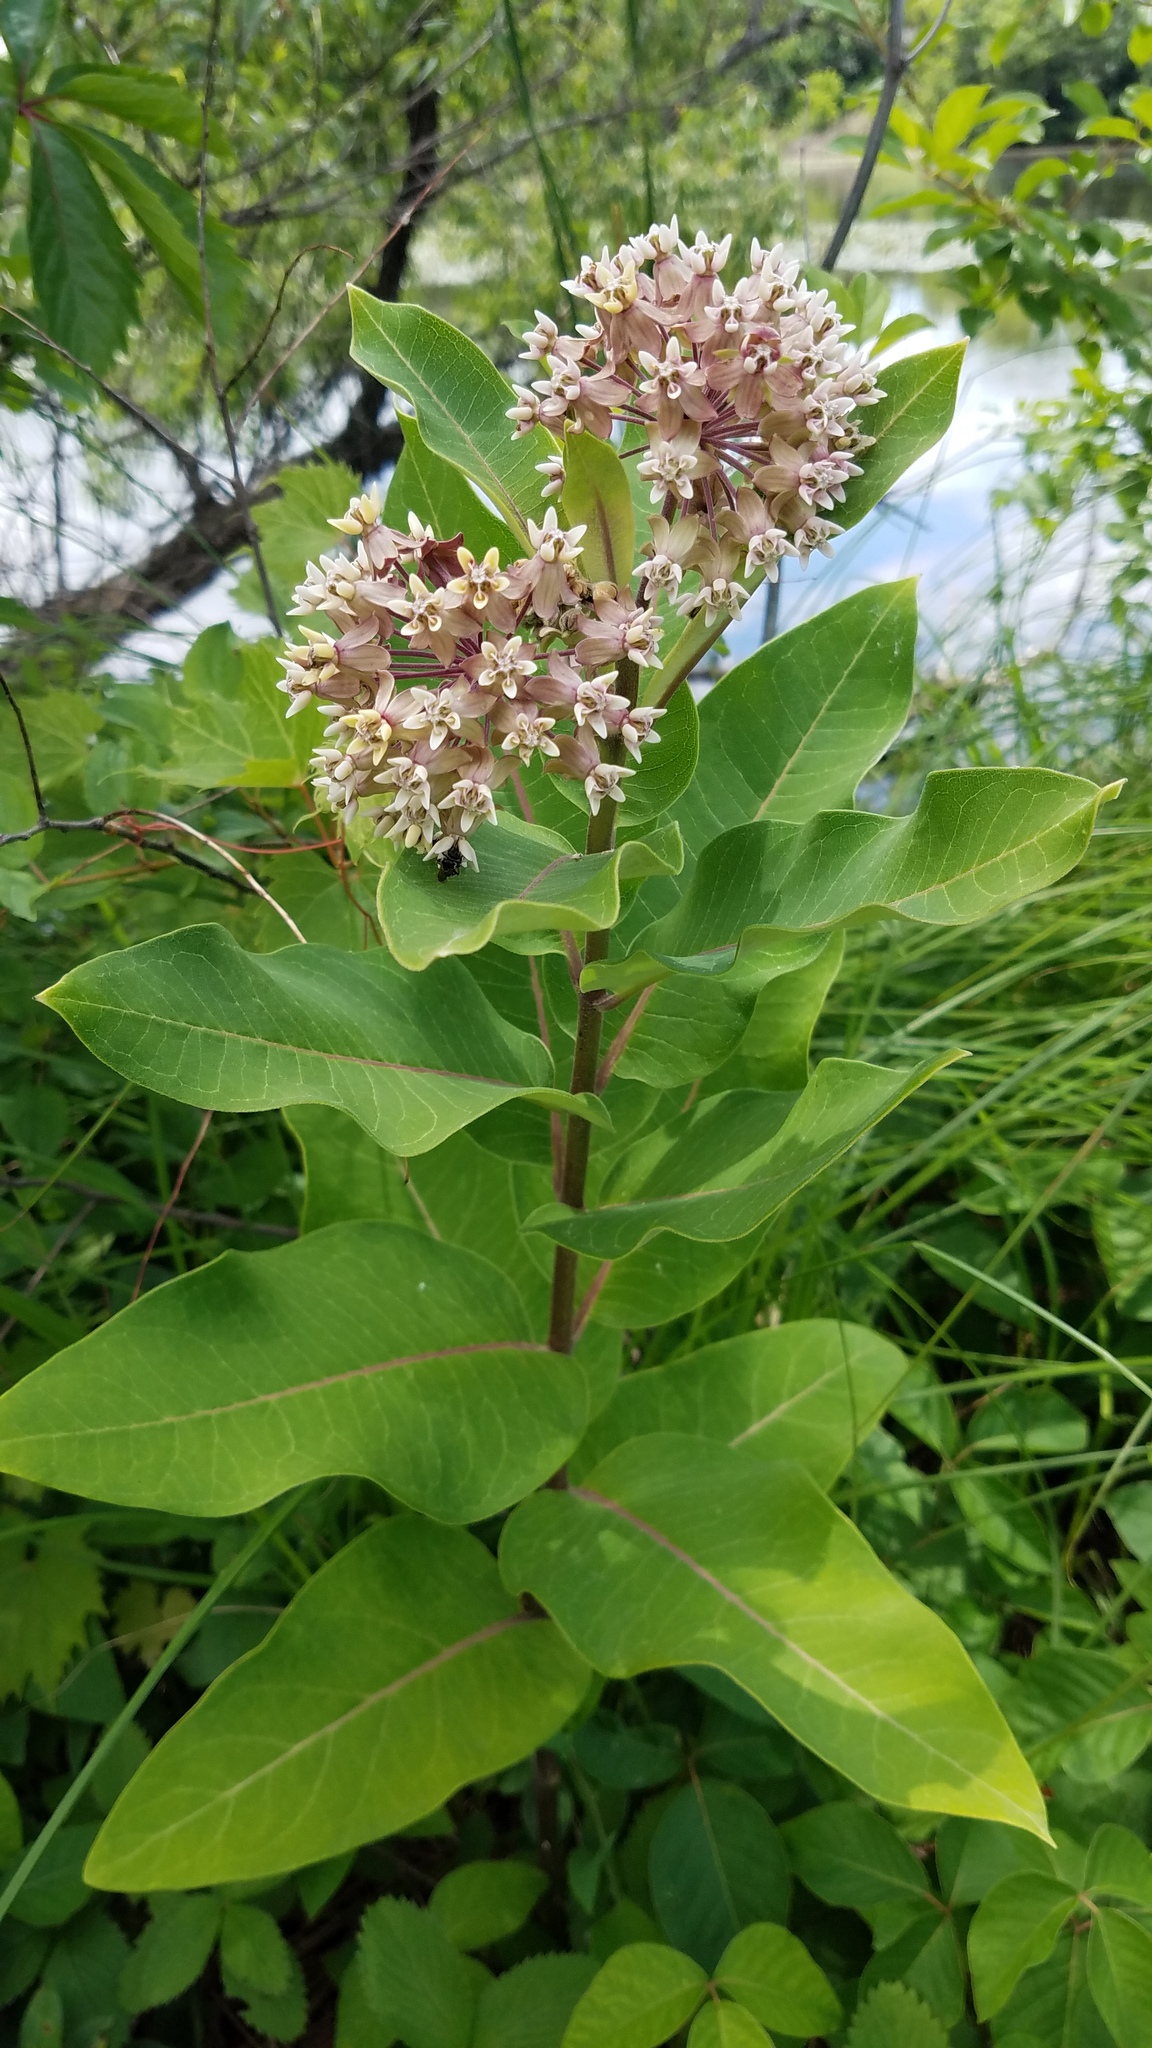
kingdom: Plantae
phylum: Tracheophyta
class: Magnoliopsida
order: Gentianales
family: Apocynaceae
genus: Asclepias
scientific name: Asclepias syriaca
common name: Common milkweed
